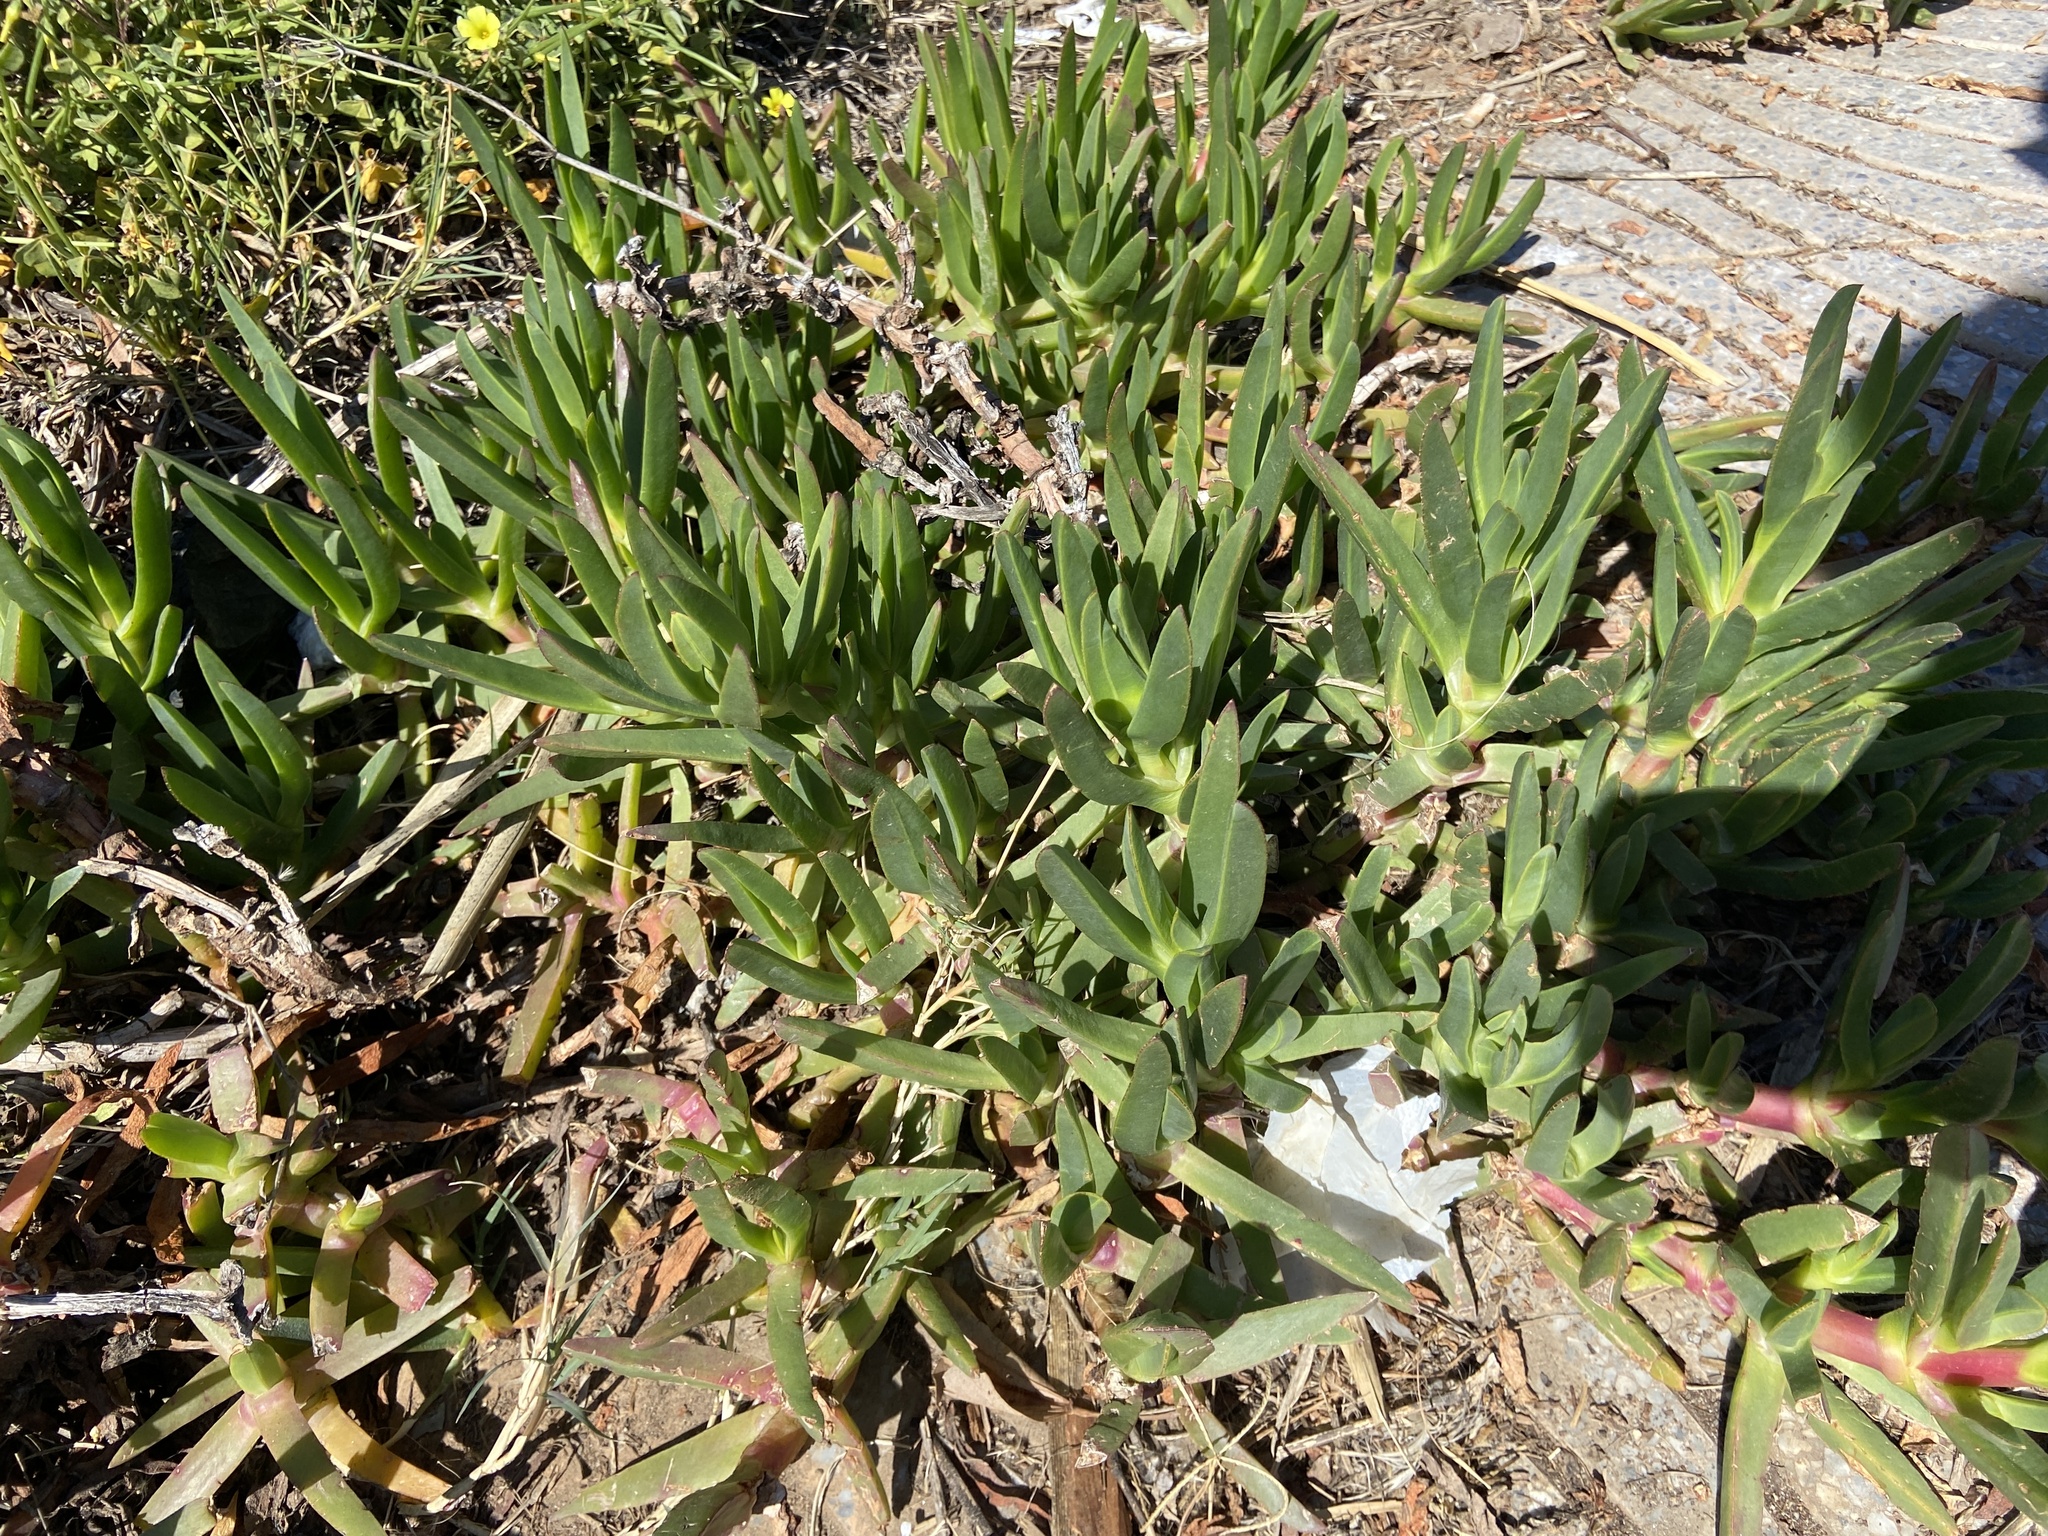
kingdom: Plantae
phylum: Tracheophyta
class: Magnoliopsida
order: Caryophyllales
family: Aizoaceae
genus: Carpobrotus
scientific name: Carpobrotus edulis
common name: Hottentot-fig
